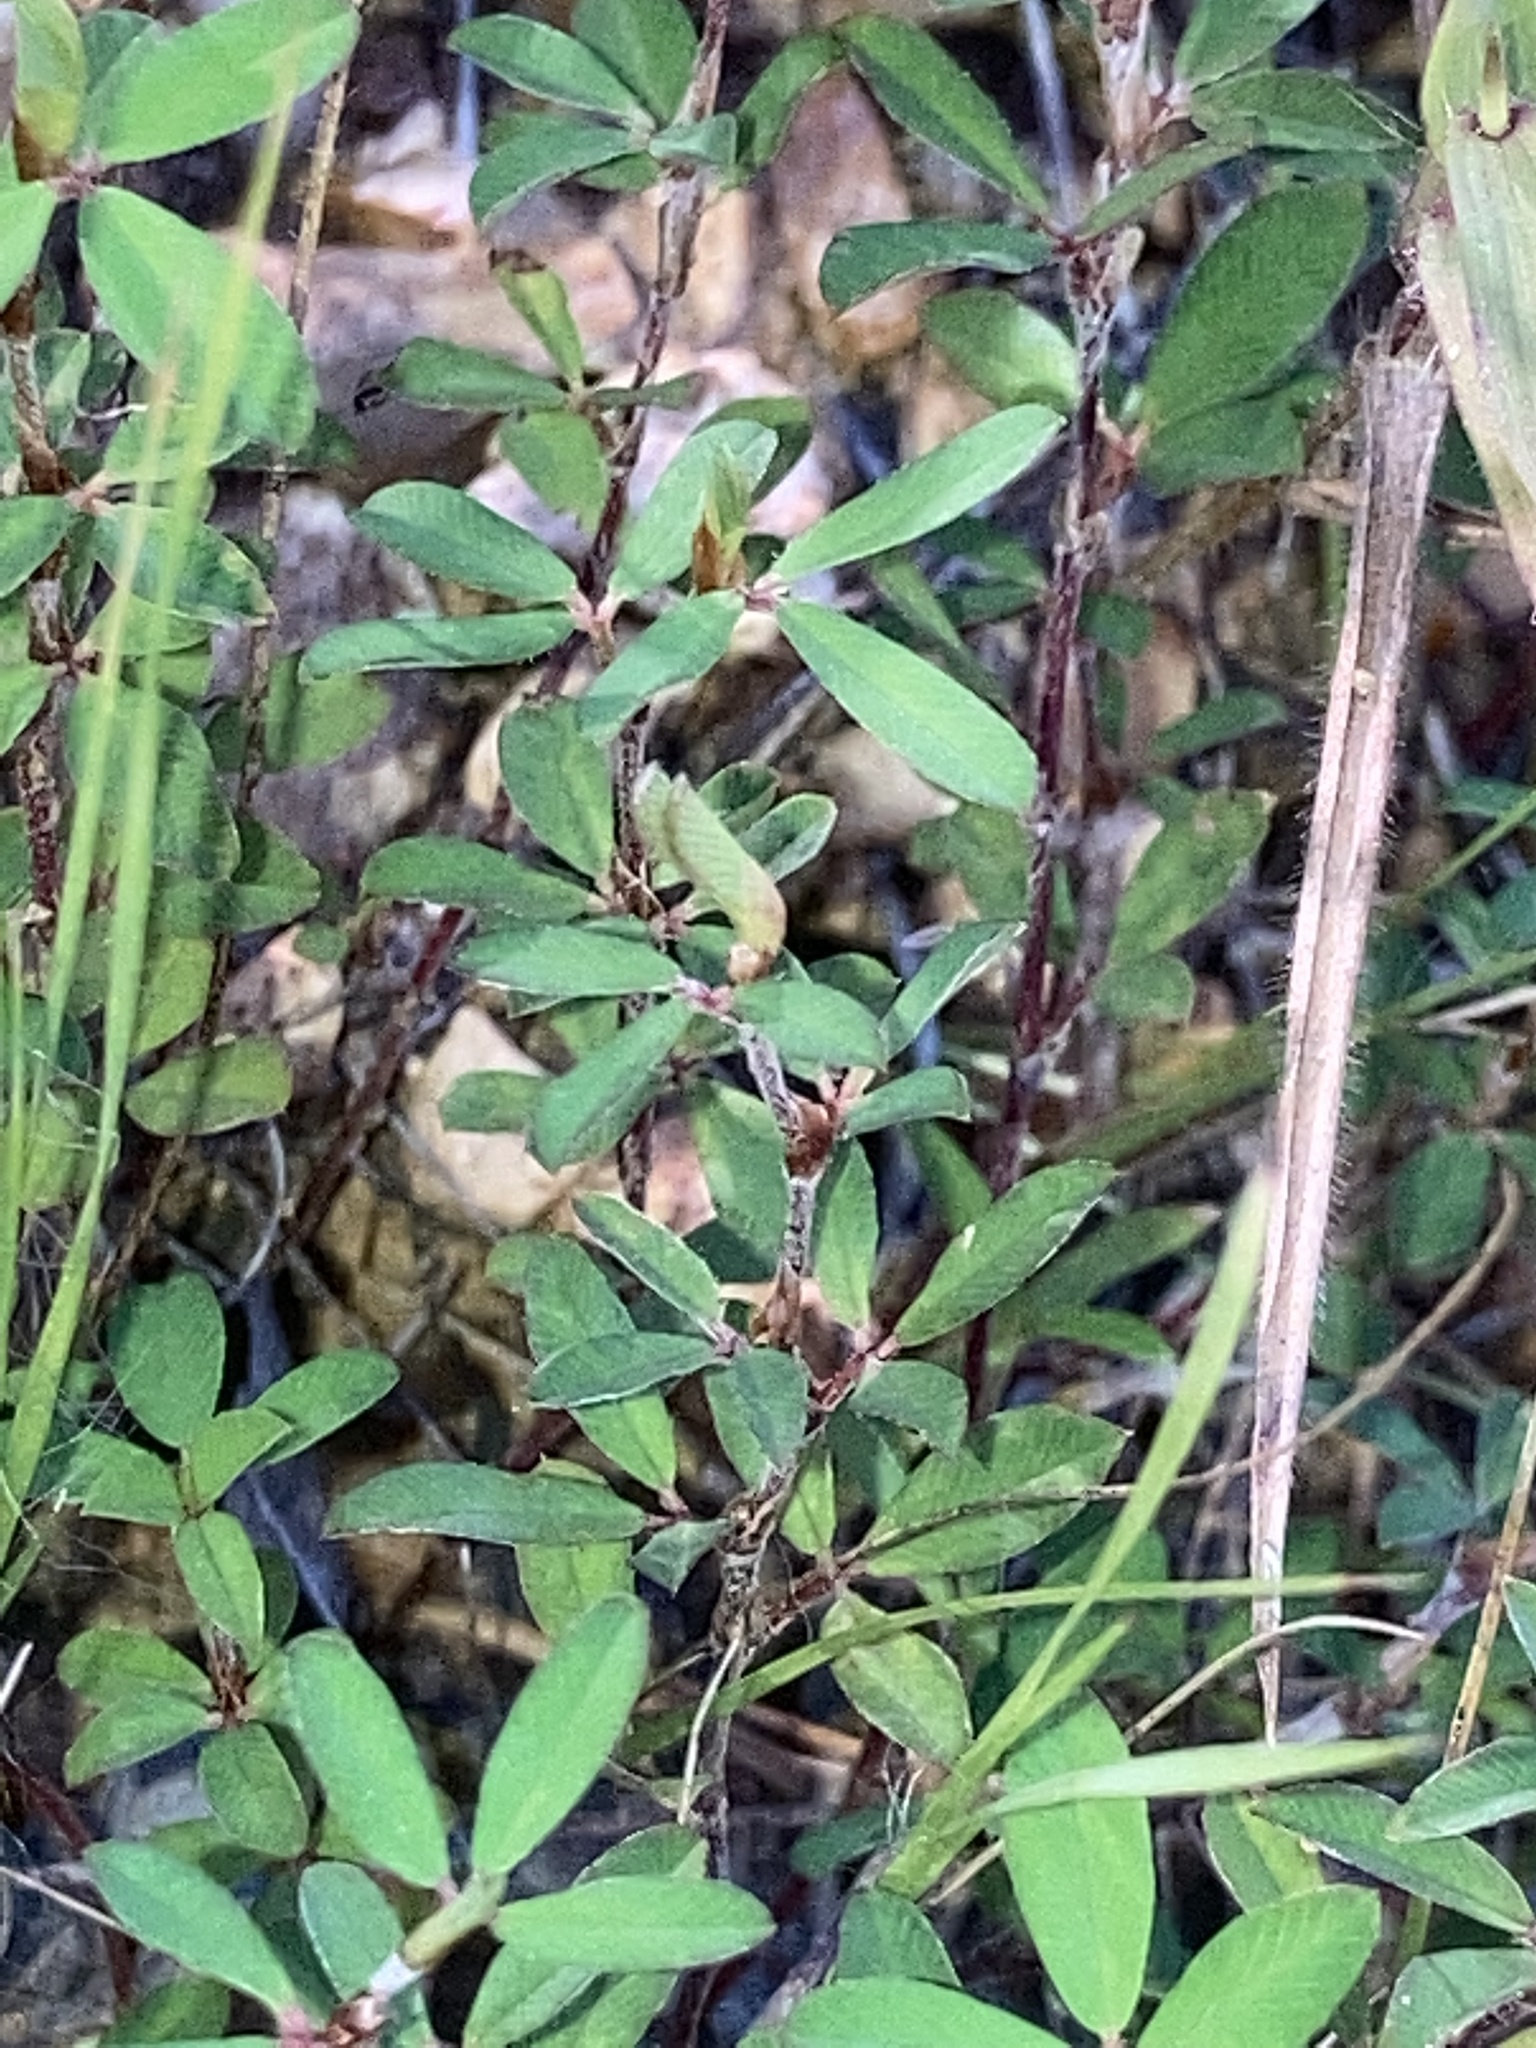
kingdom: Plantae
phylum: Tracheophyta
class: Magnoliopsida
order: Fabales
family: Fabaceae
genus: Kummerowia
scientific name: Kummerowia striata
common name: Japanese clover
